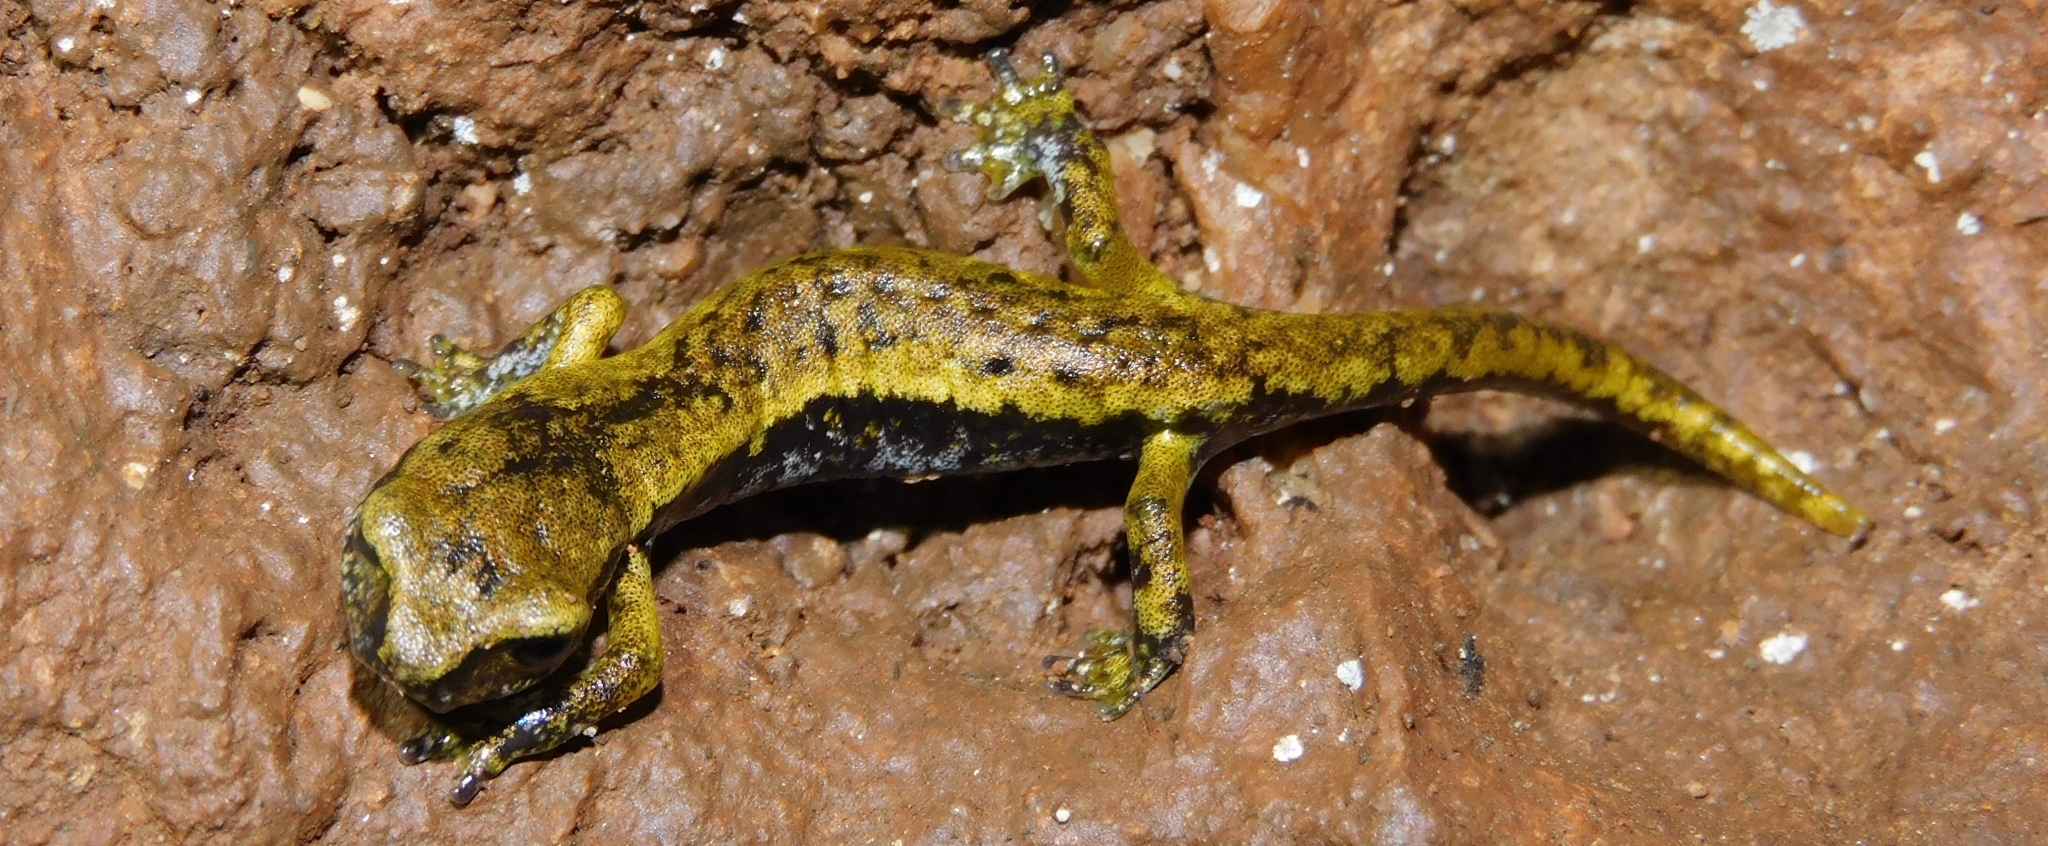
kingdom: Animalia
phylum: Chordata
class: Amphibia
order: Caudata
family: Plethodontidae
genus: Speleomantes
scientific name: Speleomantes italicus
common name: Italian cave salamander
